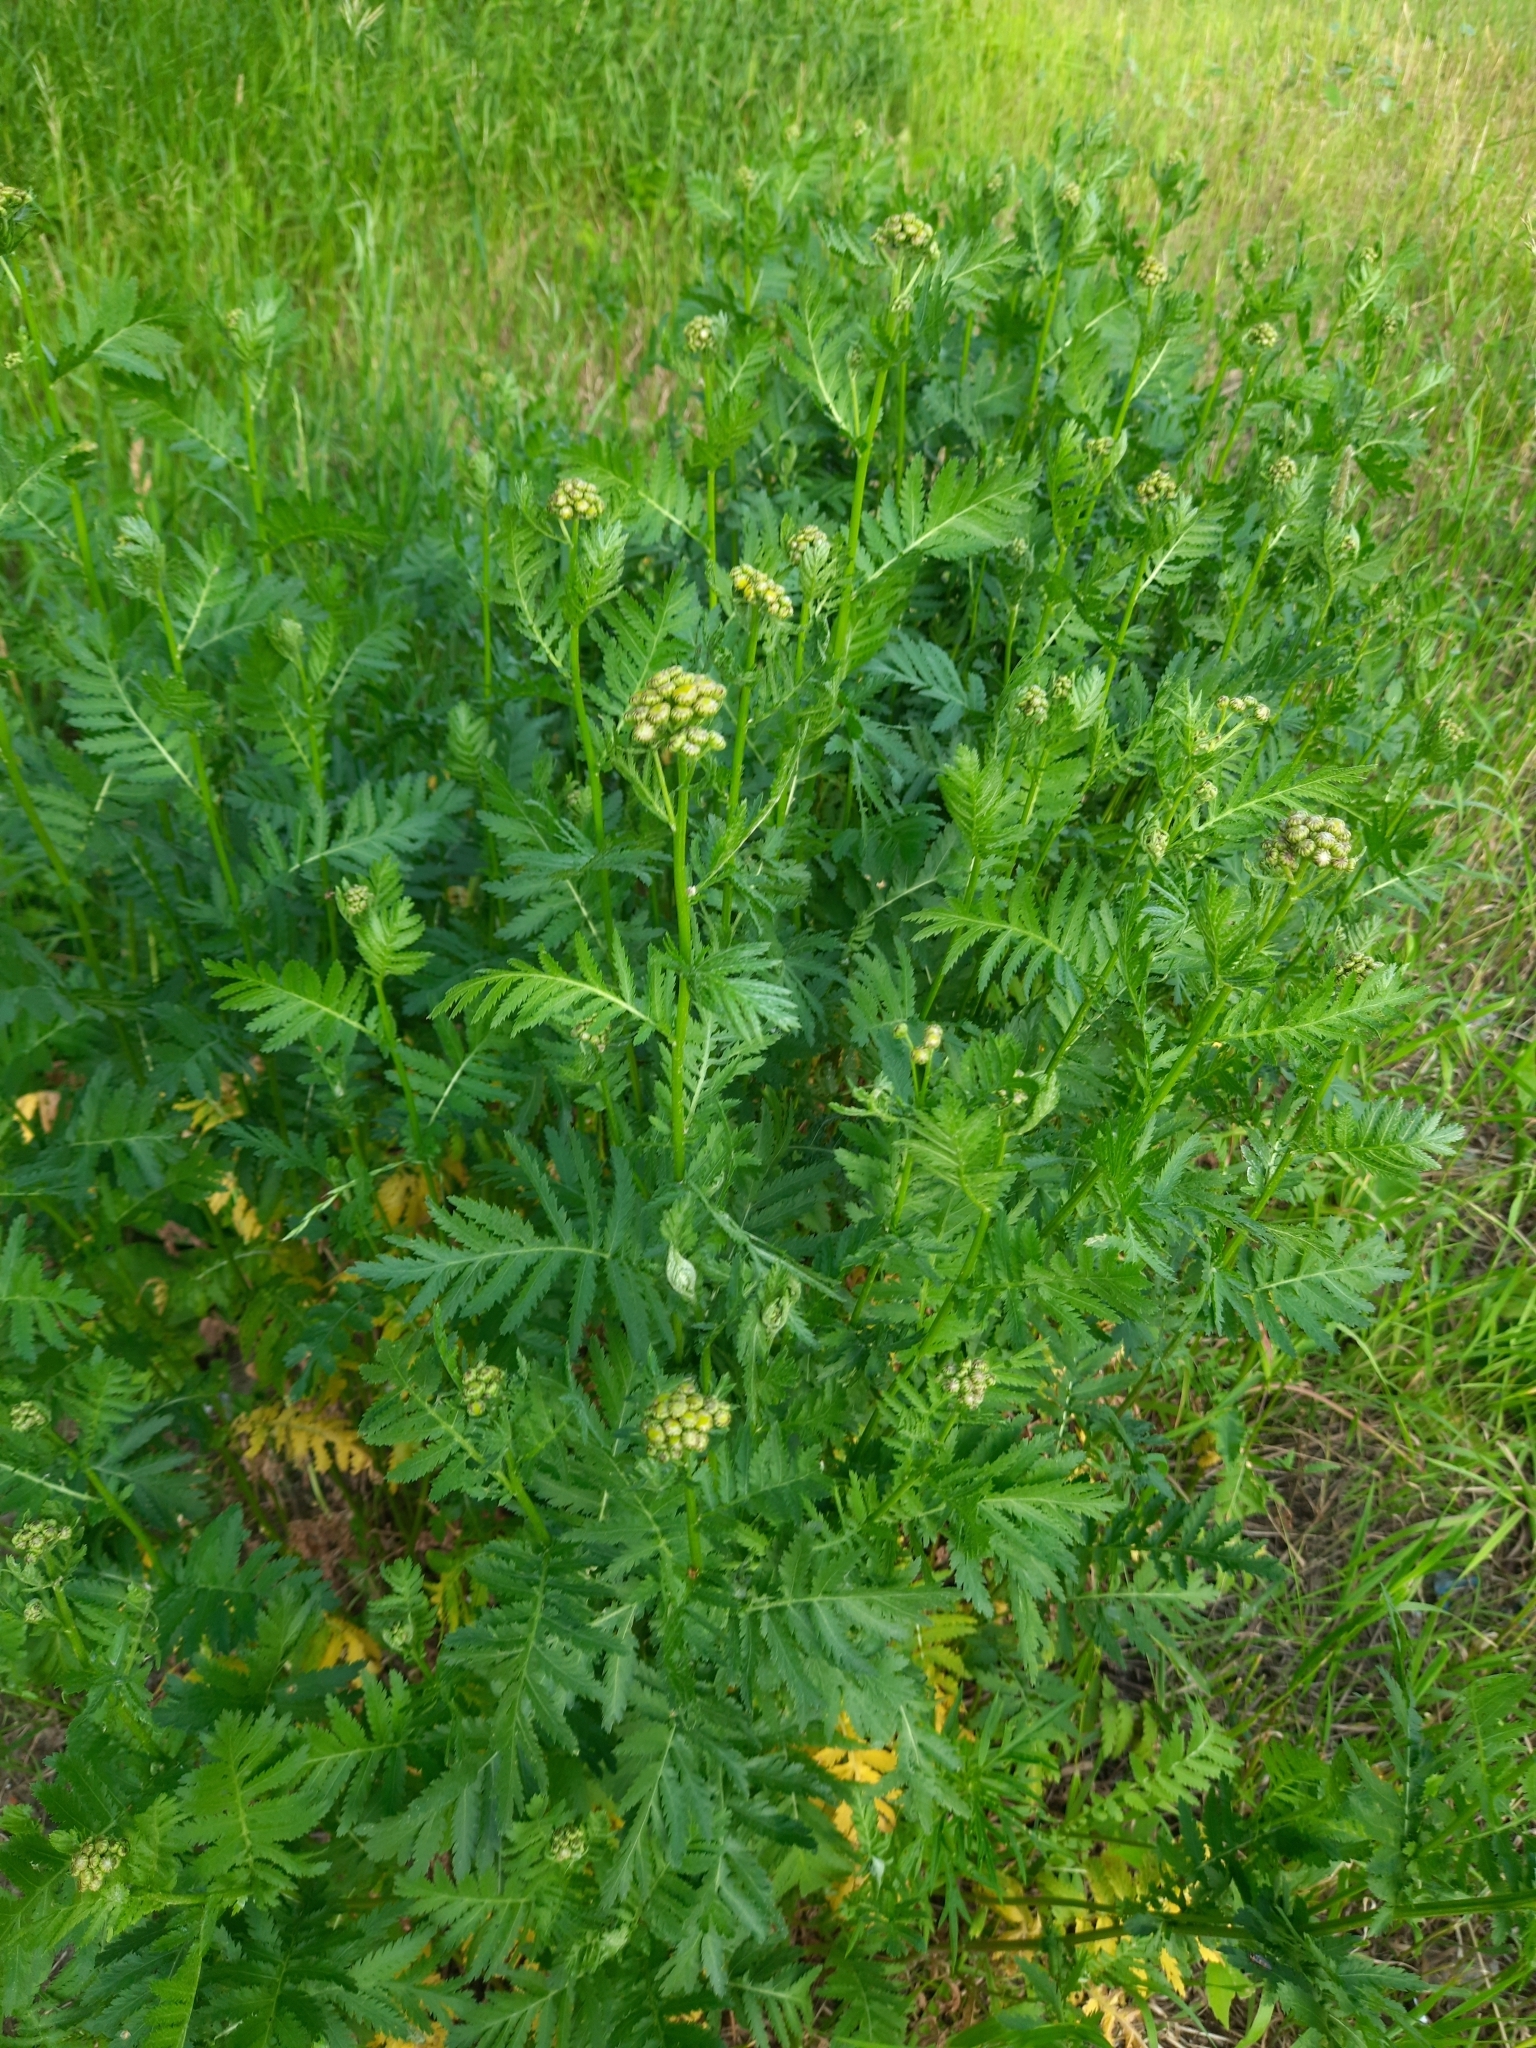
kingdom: Plantae
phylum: Tracheophyta
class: Magnoliopsida
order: Asterales
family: Asteraceae
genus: Tanacetum
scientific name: Tanacetum vulgare
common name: Common tansy
